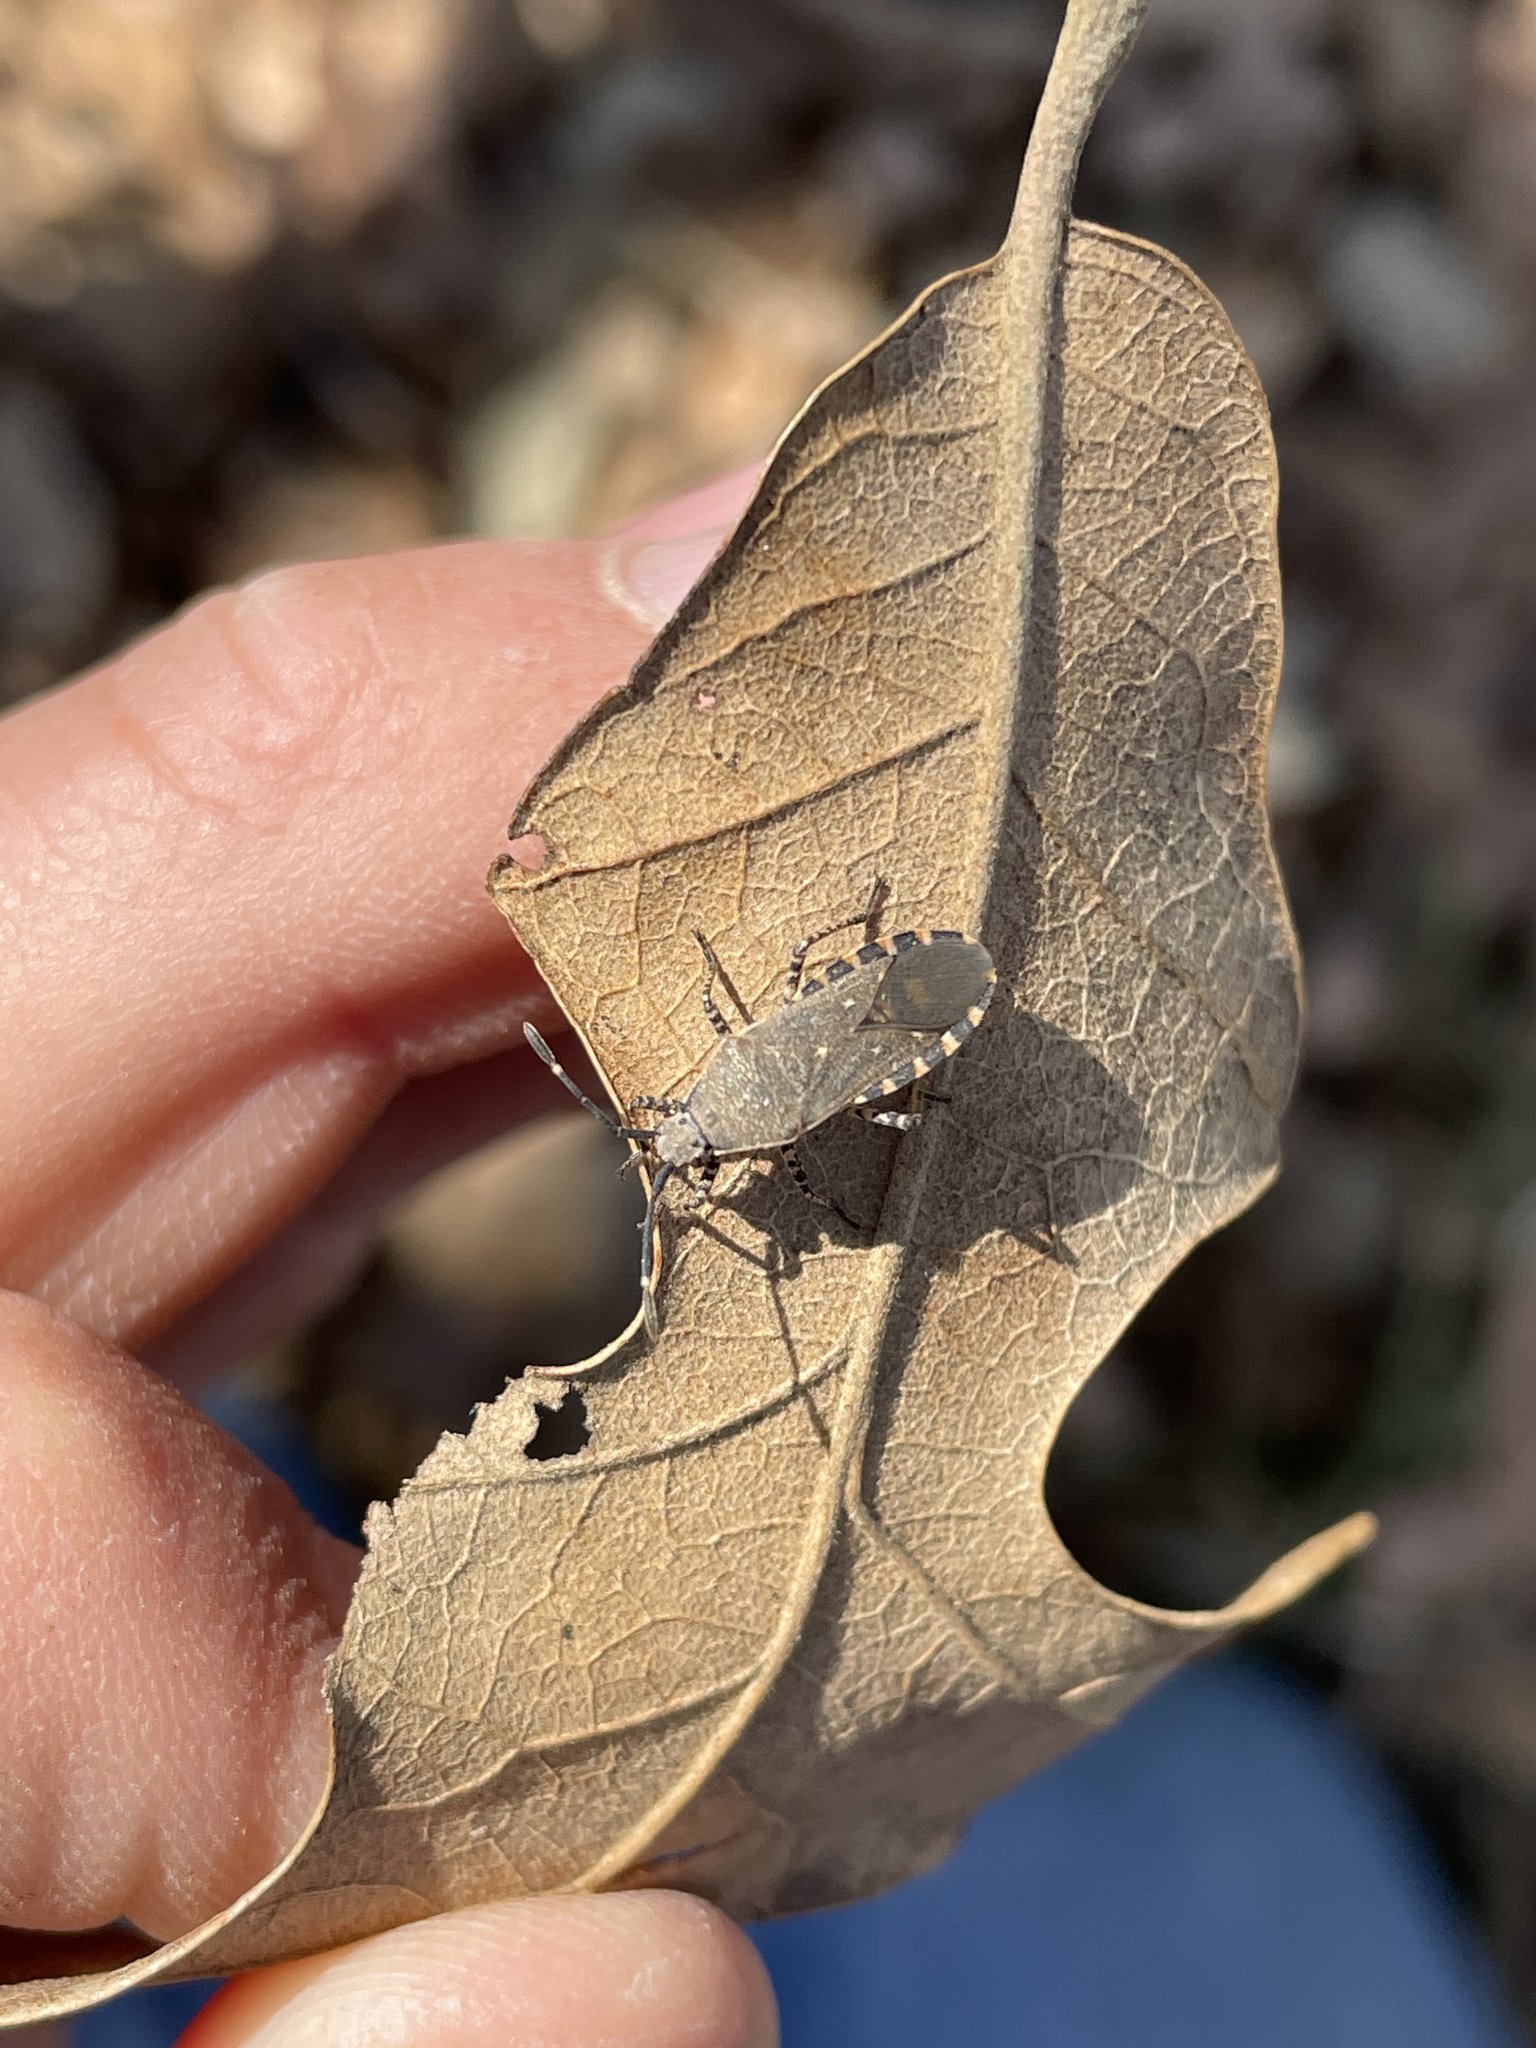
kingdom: Animalia
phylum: Arthropoda
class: Insecta
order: Hemiptera
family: Coreidae
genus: Catorhintha
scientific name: Catorhintha guttula
